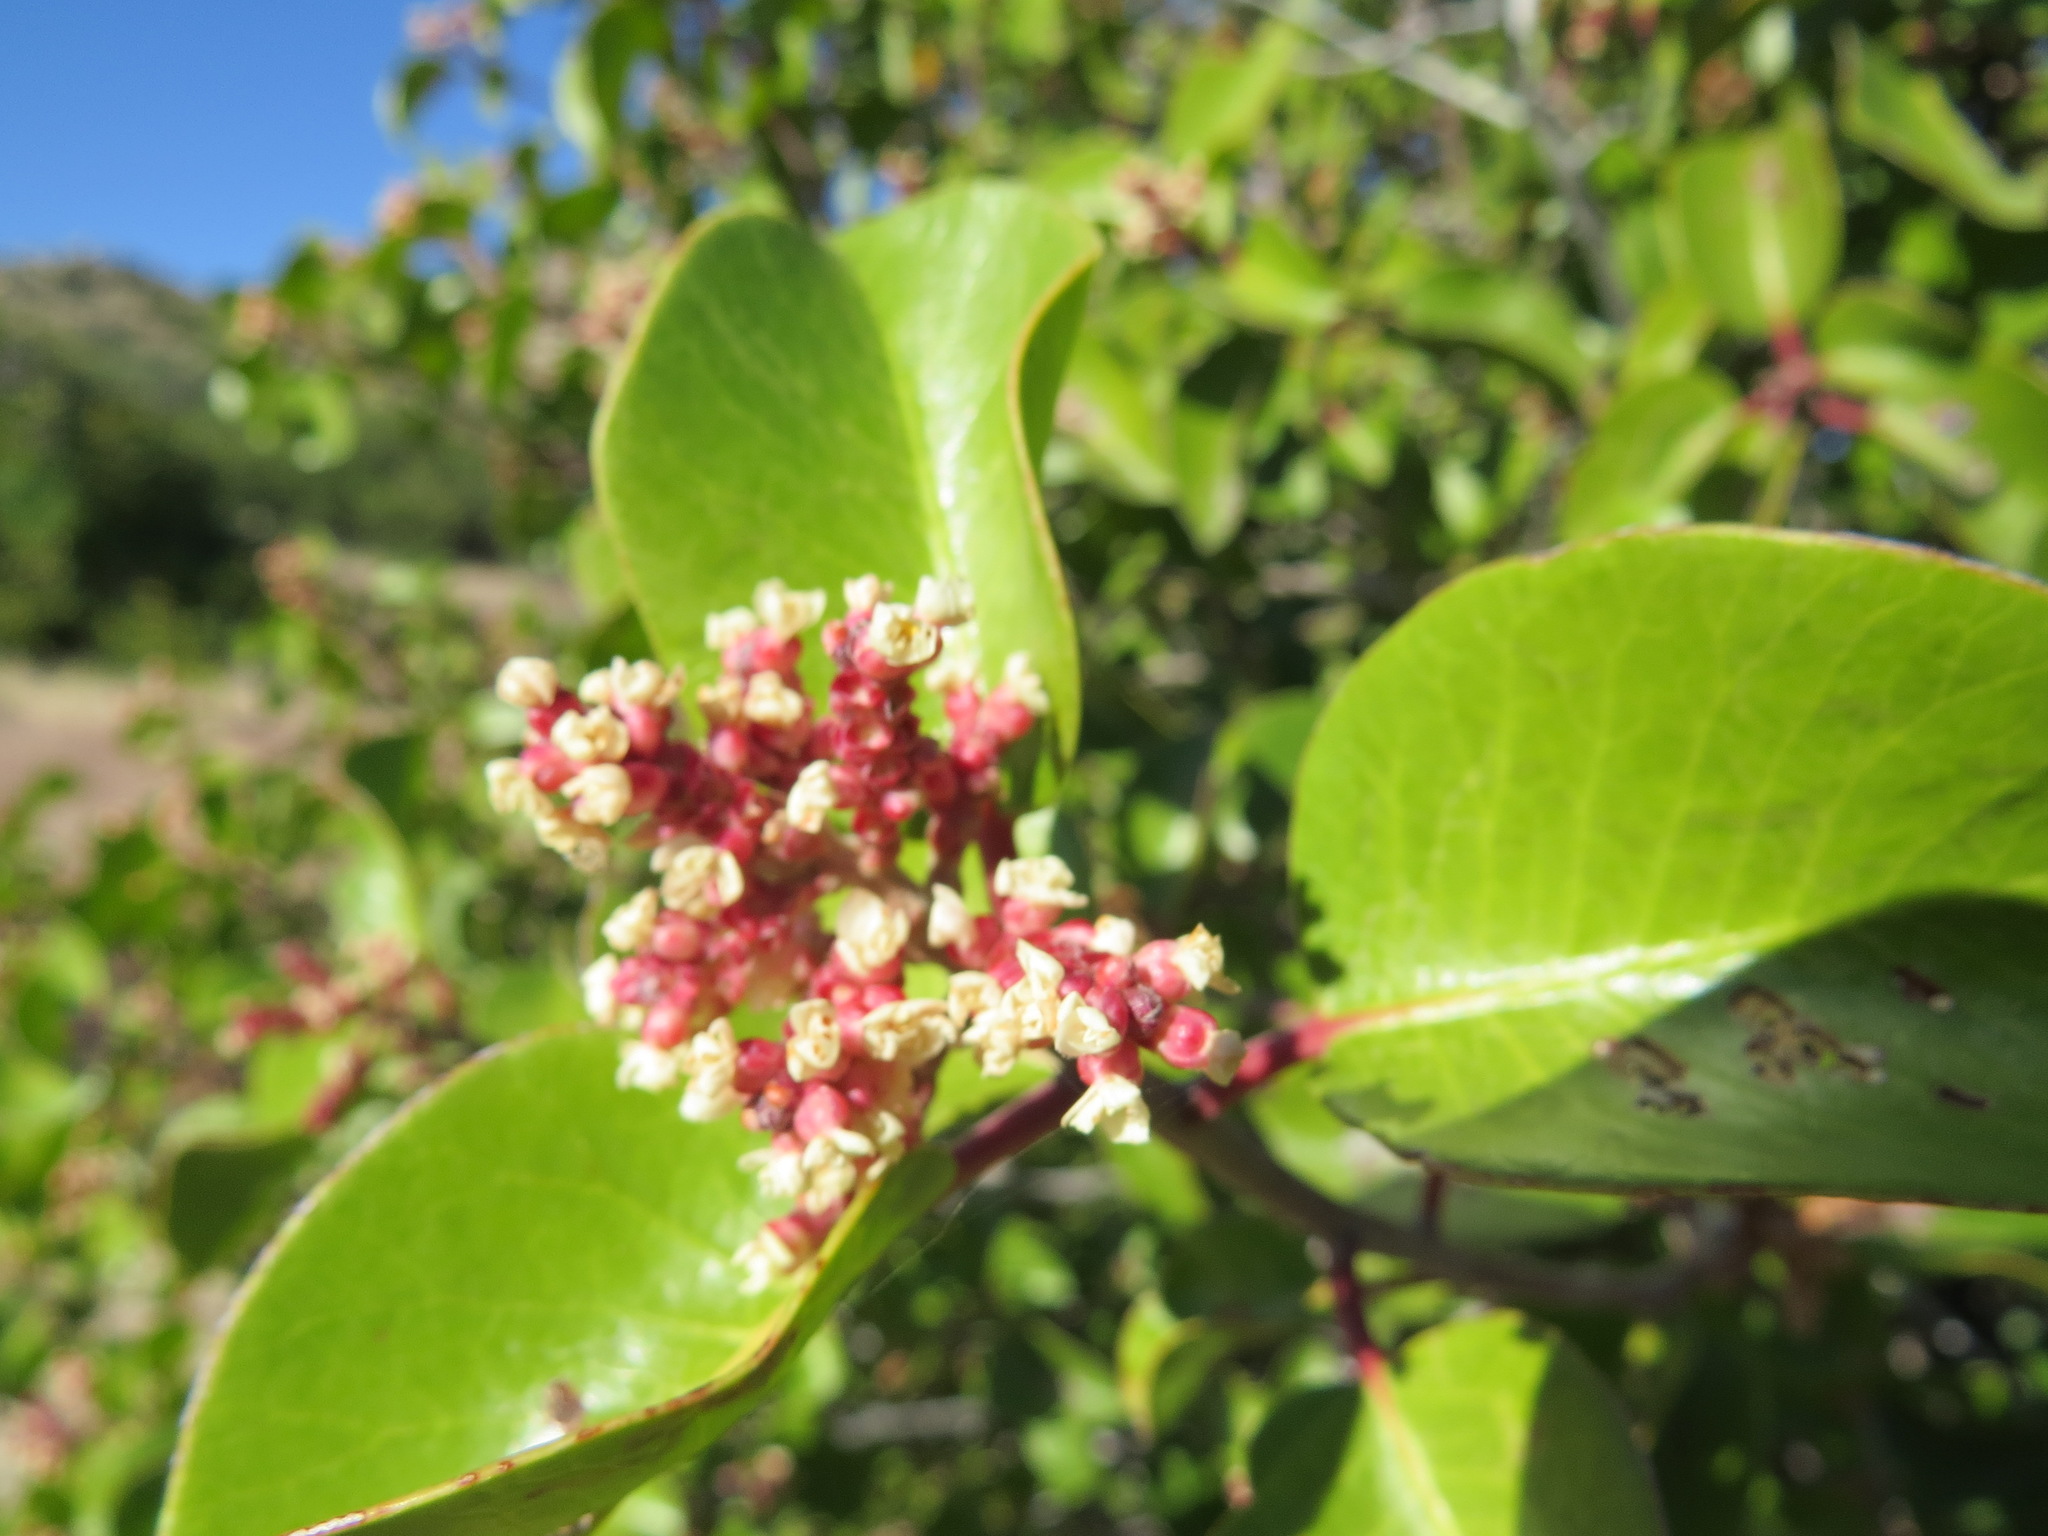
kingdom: Plantae
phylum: Tracheophyta
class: Magnoliopsida
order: Sapindales
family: Anacardiaceae
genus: Rhus
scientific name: Rhus ovata
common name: Sugar sumac
